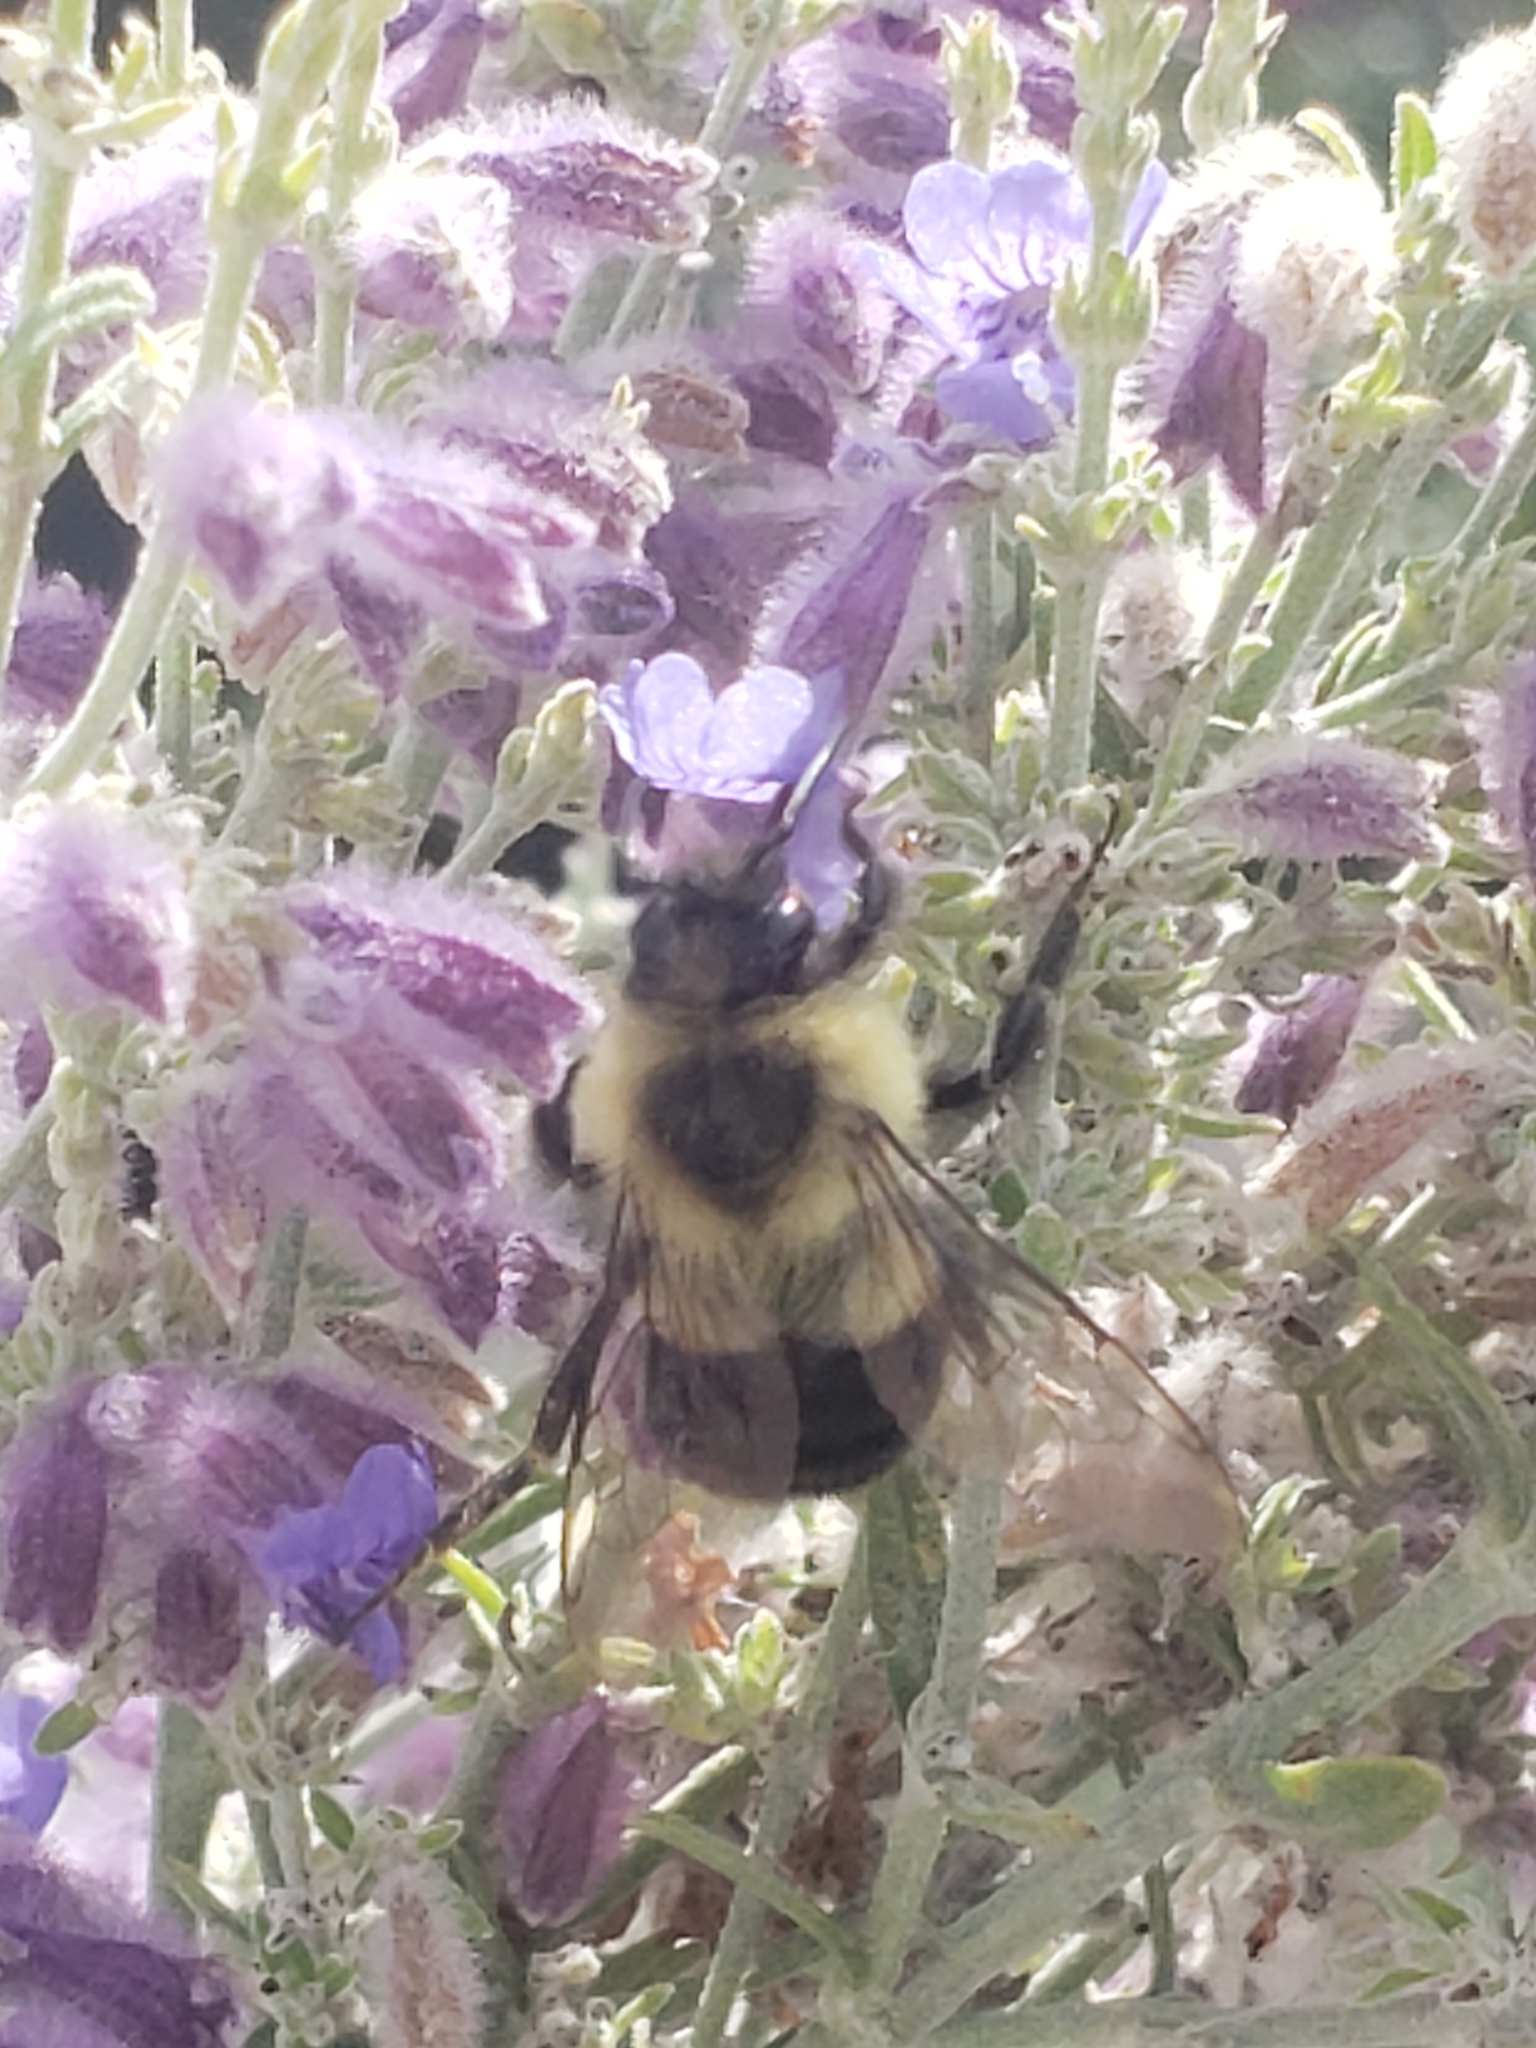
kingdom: Animalia
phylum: Arthropoda
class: Insecta
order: Hymenoptera
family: Apidae
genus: Bombus
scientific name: Bombus impatiens
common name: Common eastern bumble bee
